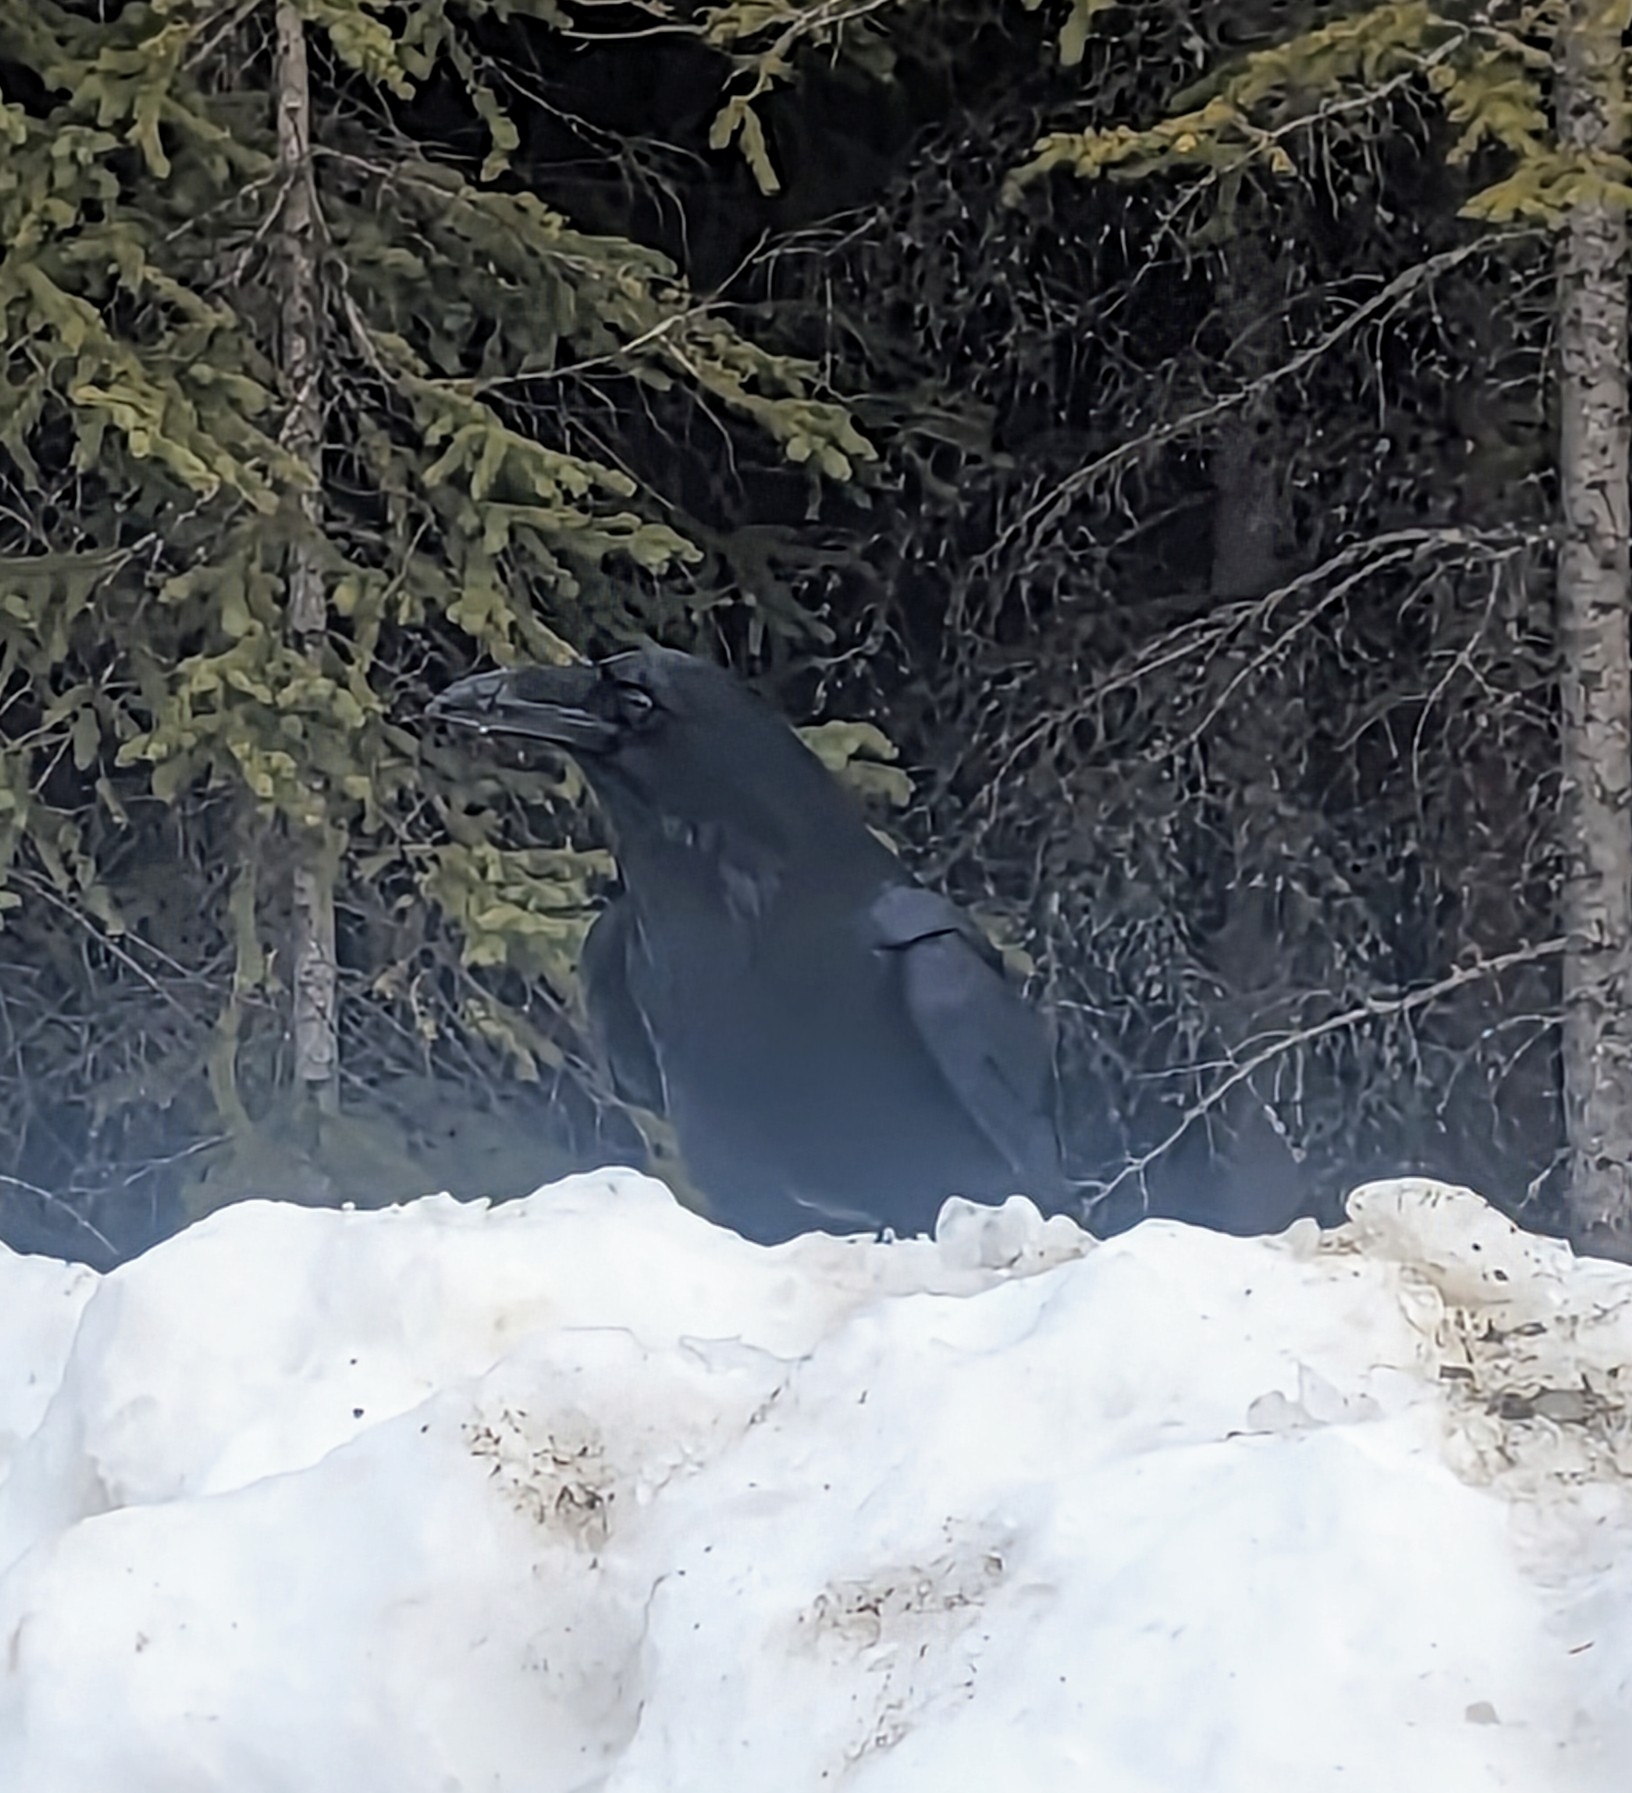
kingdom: Animalia
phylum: Chordata
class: Aves
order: Passeriformes
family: Corvidae
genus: Corvus
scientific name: Corvus corax
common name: Common raven
